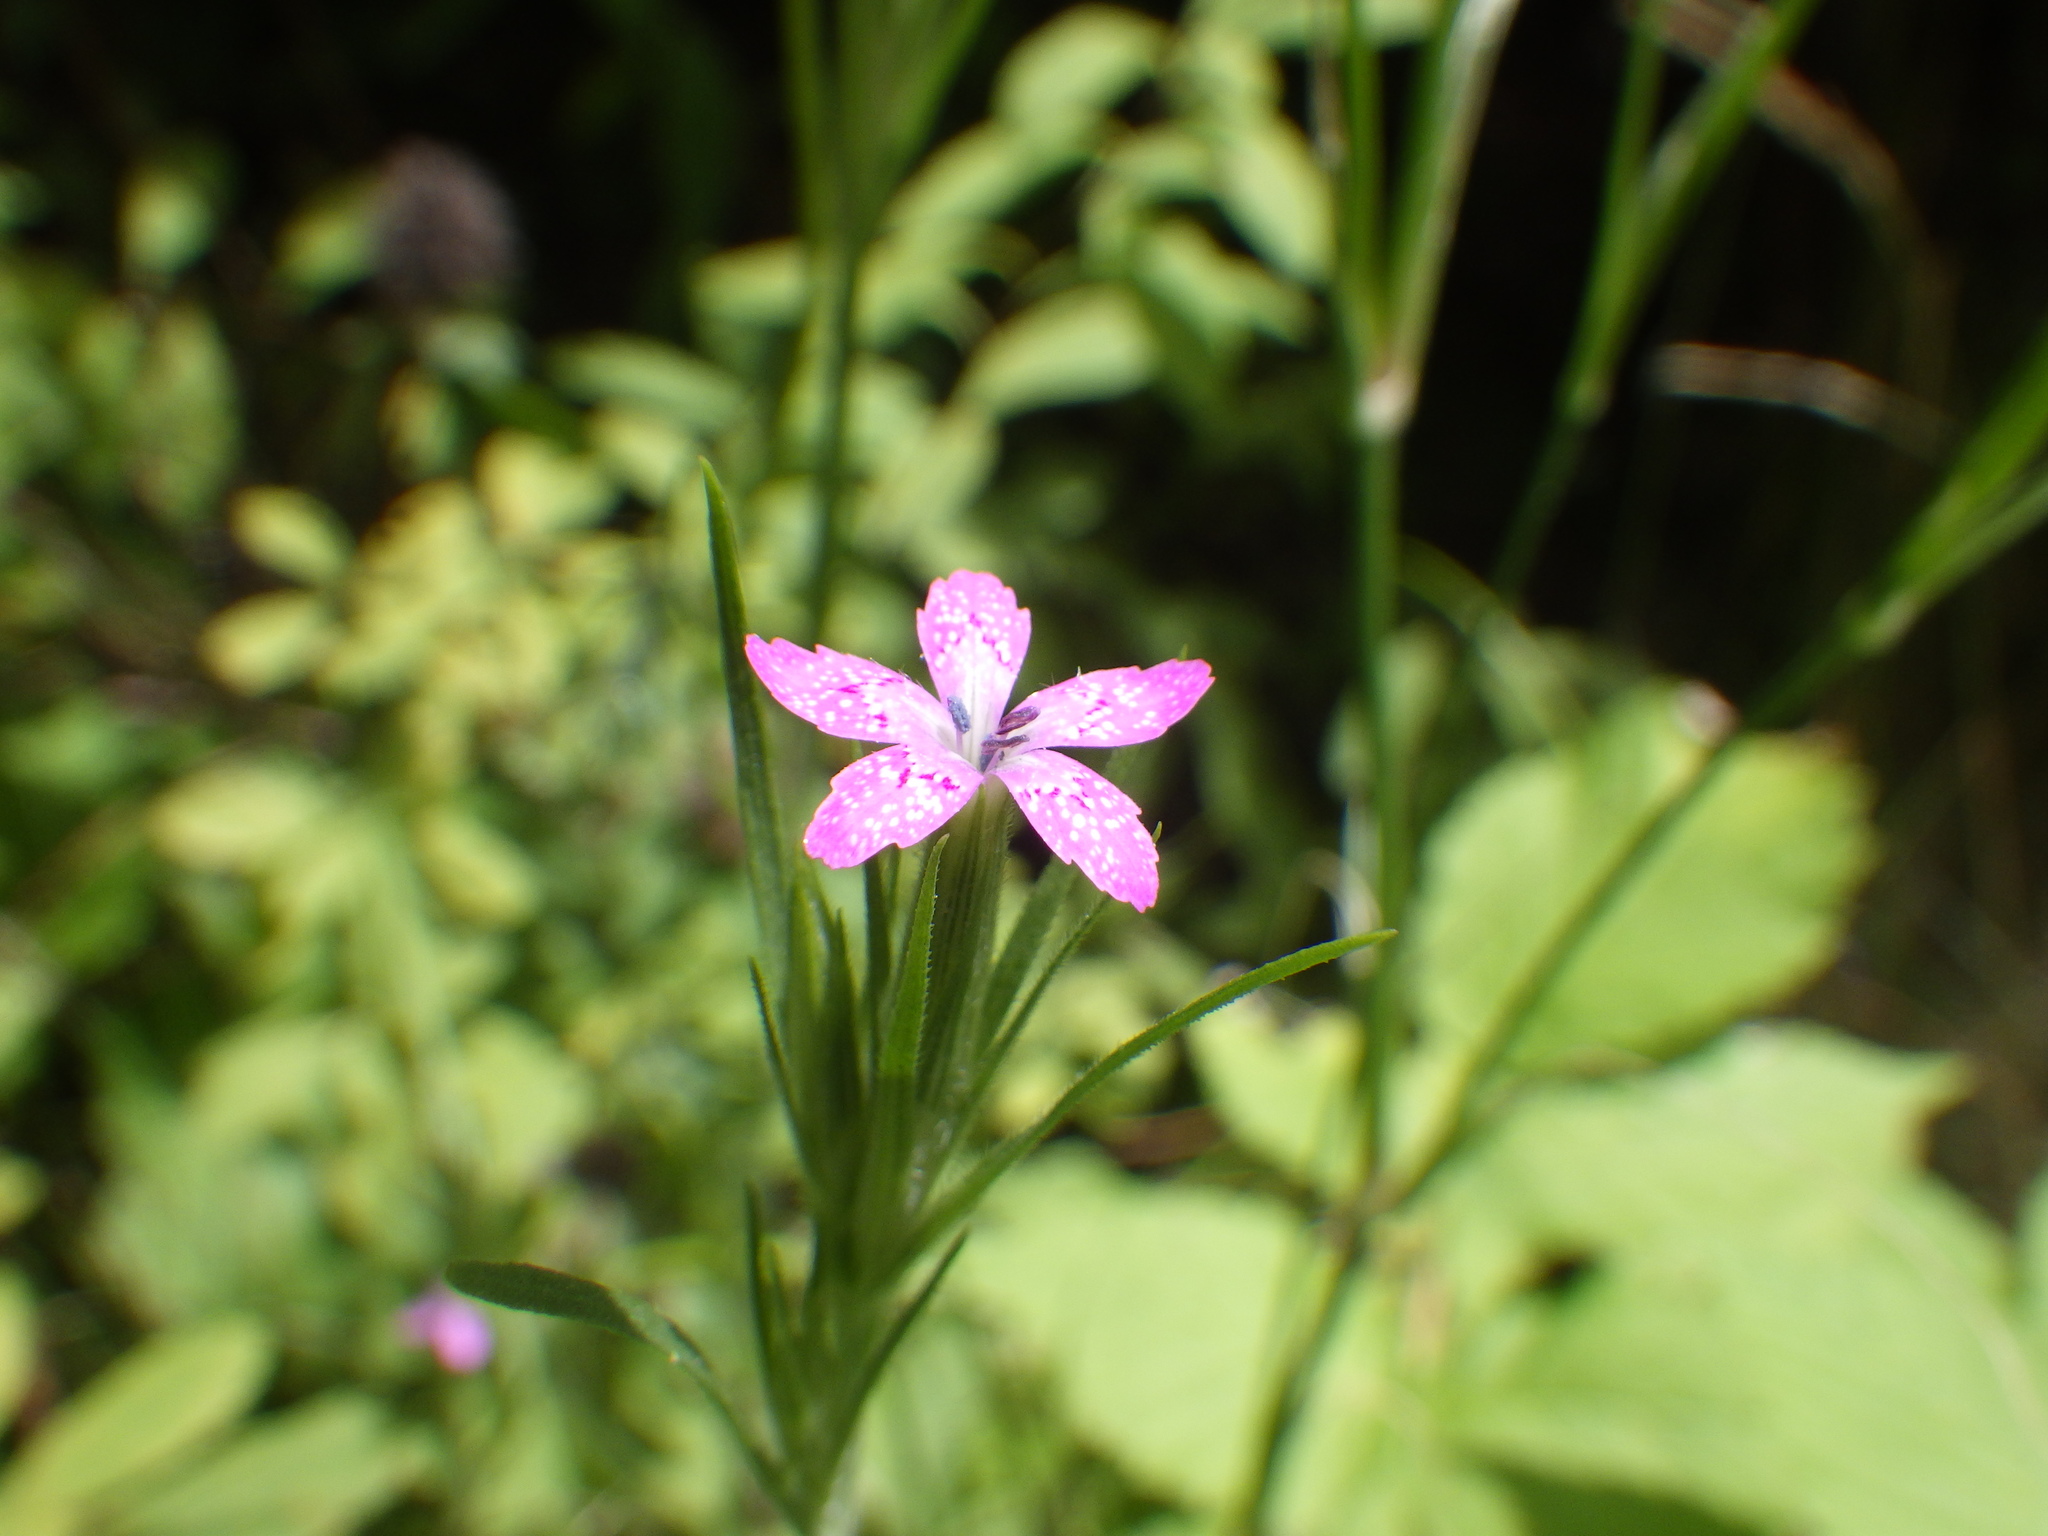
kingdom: Plantae
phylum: Tracheophyta
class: Magnoliopsida
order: Caryophyllales
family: Caryophyllaceae
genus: Dianthus
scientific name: Dianthus armeria
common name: Deptford pink
